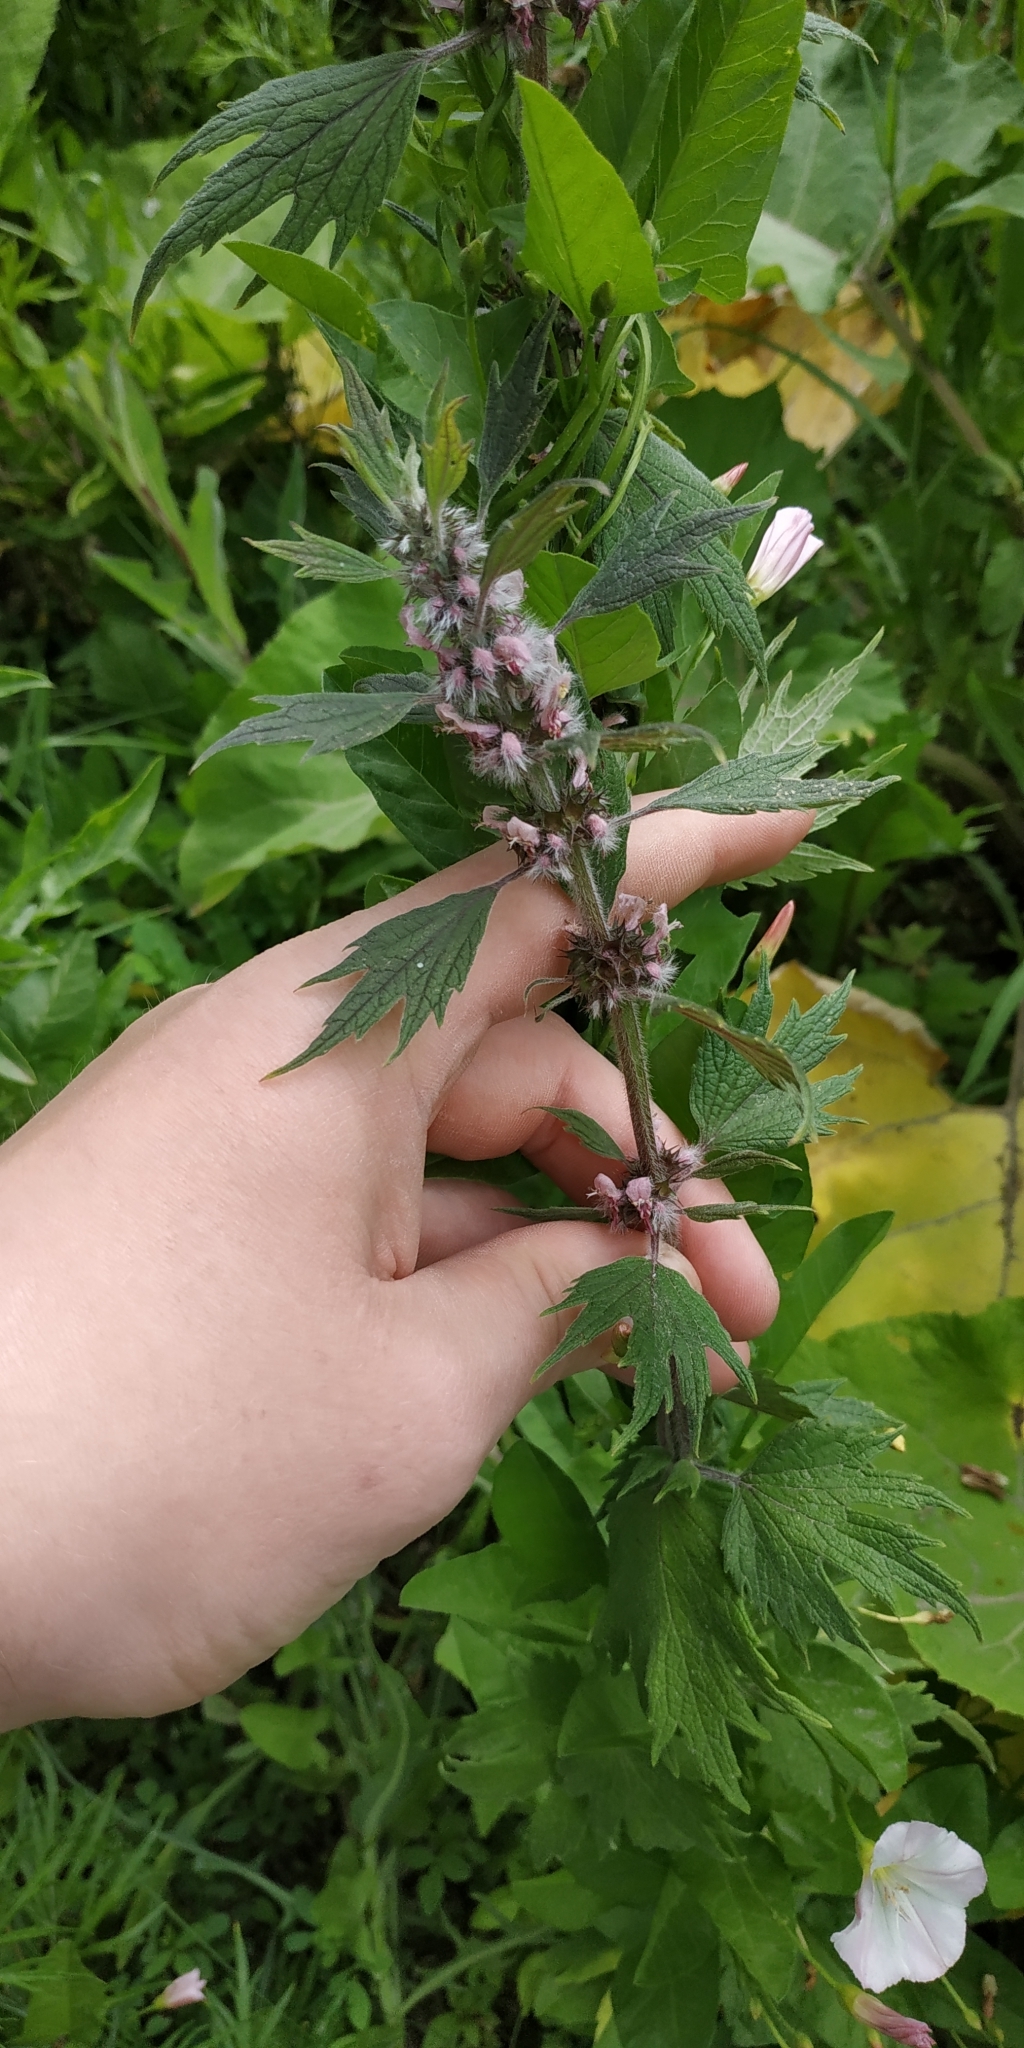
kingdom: Plantae
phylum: Tracheophyta
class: Magnoliopsida
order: Lamiales
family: Lamiaceae
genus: Leonurus
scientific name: Leonurus quinquelobatus
